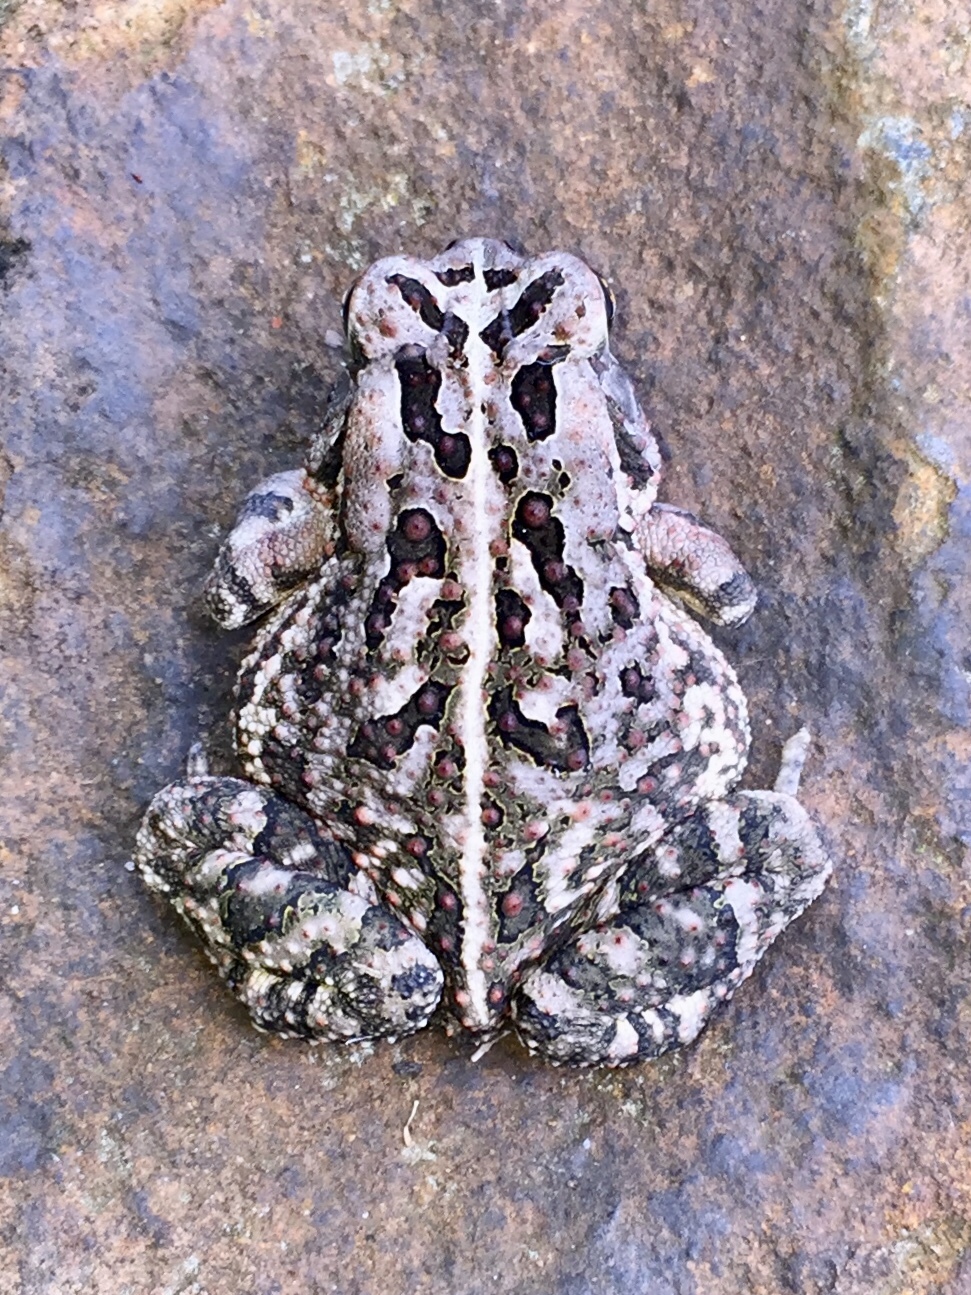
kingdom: Animalia
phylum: Chordata
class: Amphibia
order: Anura
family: Bufonidae
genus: Anaxyrus
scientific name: Anaxyrus fowleri
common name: Fowler's toad
